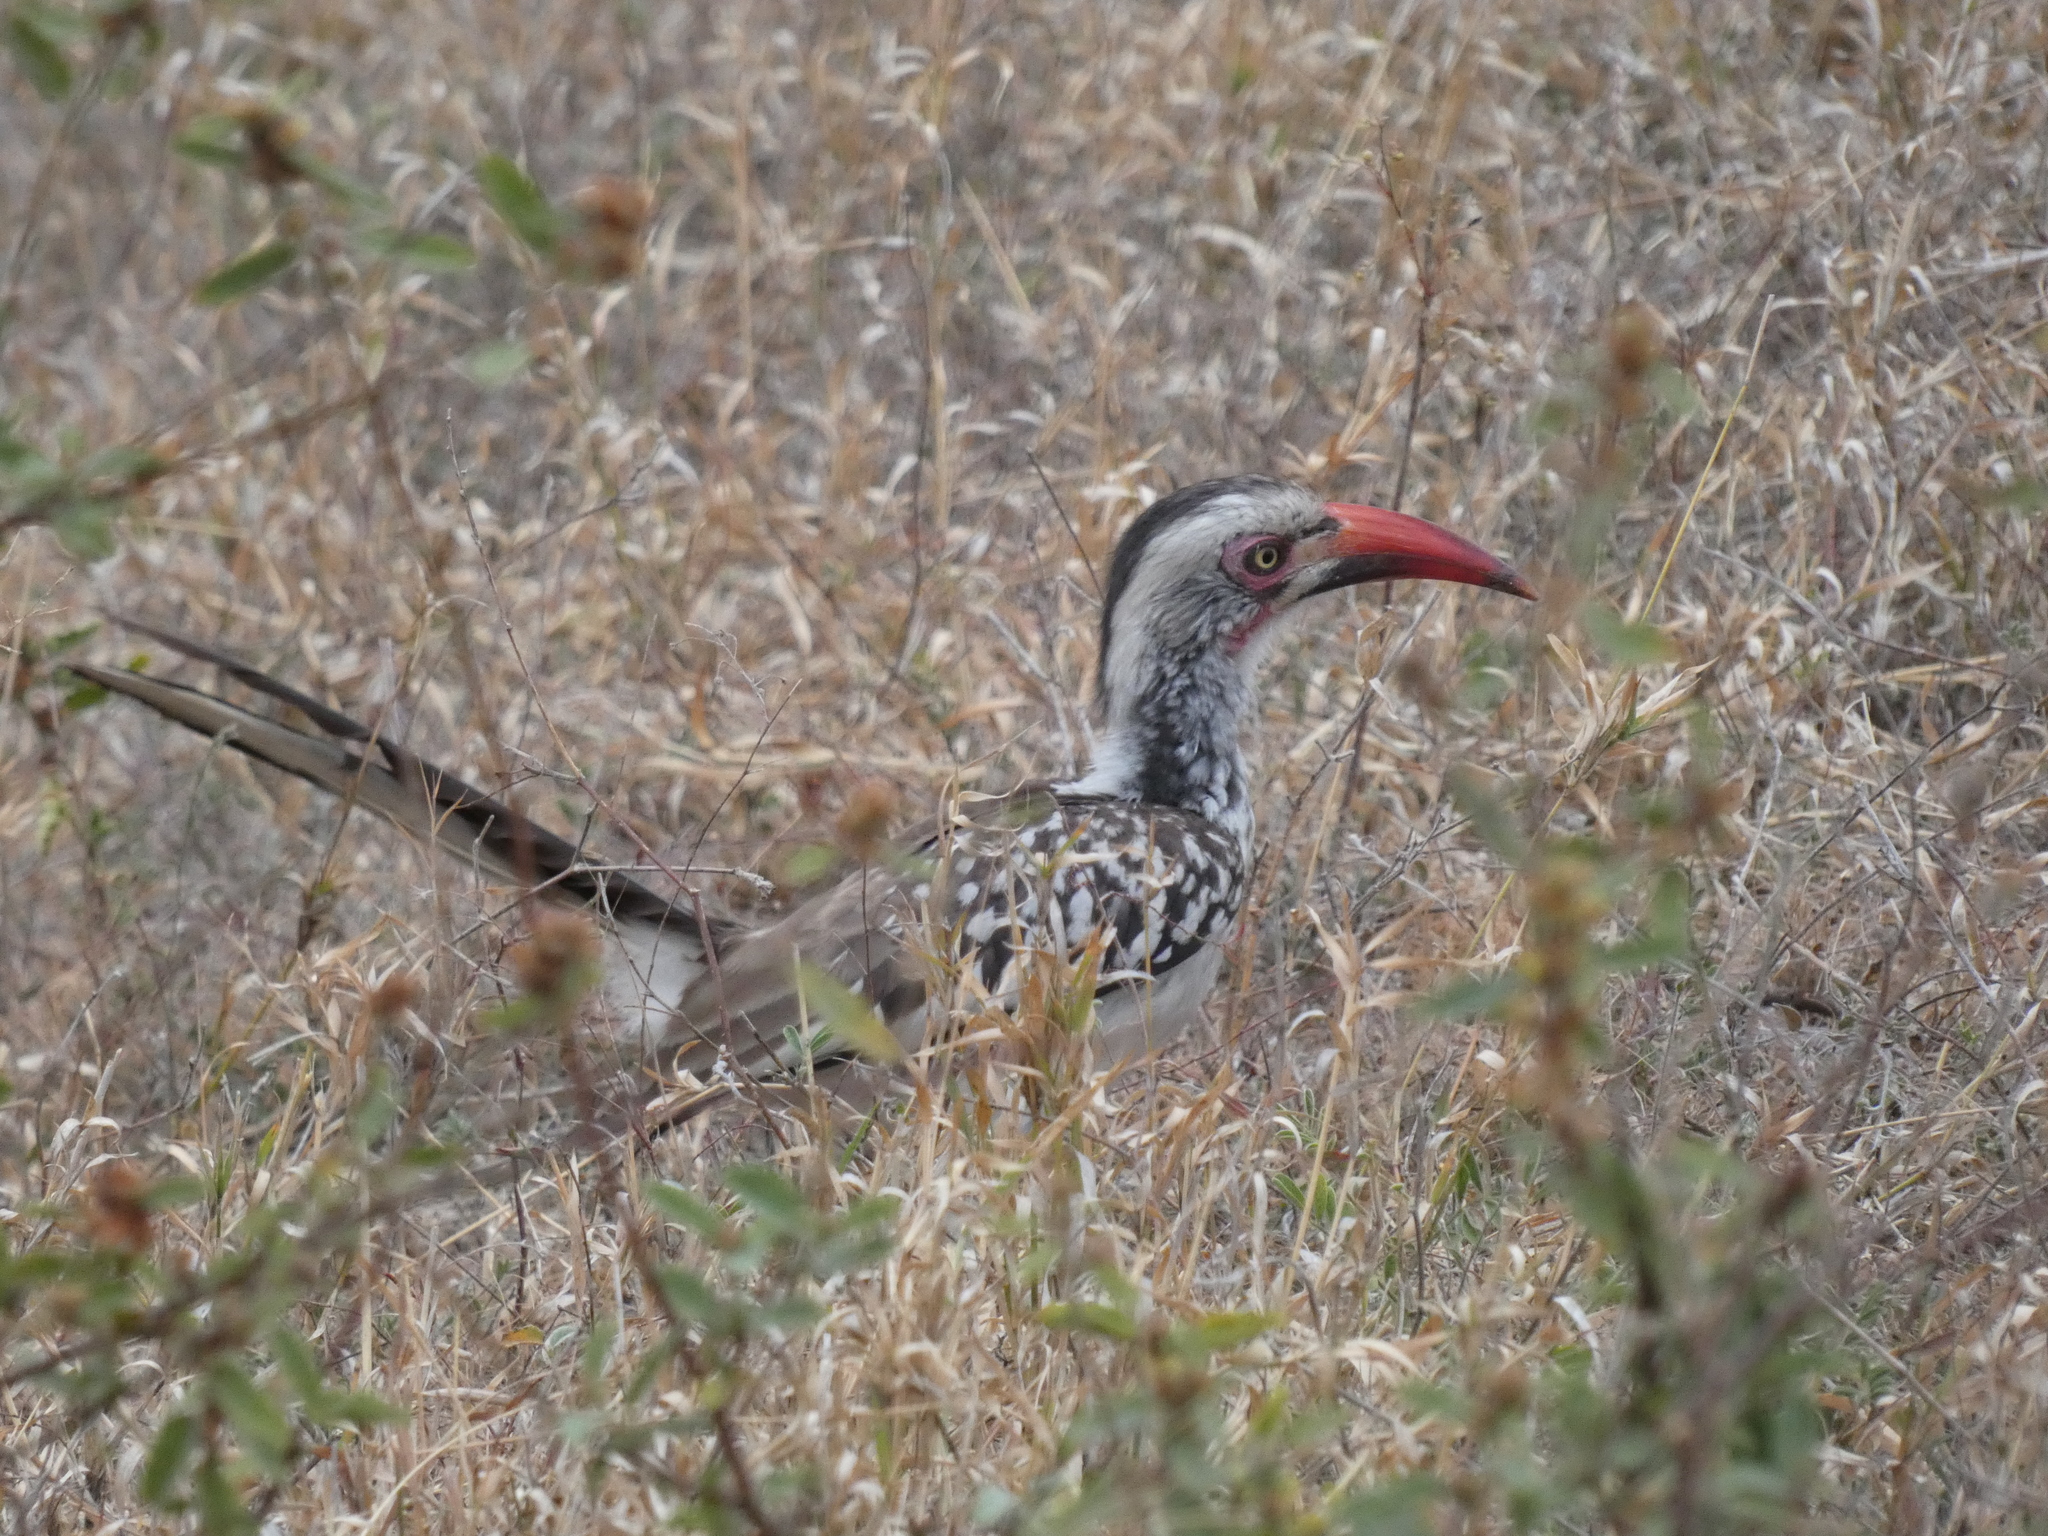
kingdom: Animalia
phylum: Chordata
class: Aves
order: Bucerotiformes
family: Bucerotidae
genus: Tockus
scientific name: Tockus rufirostris
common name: Southern red-billed hornbill
